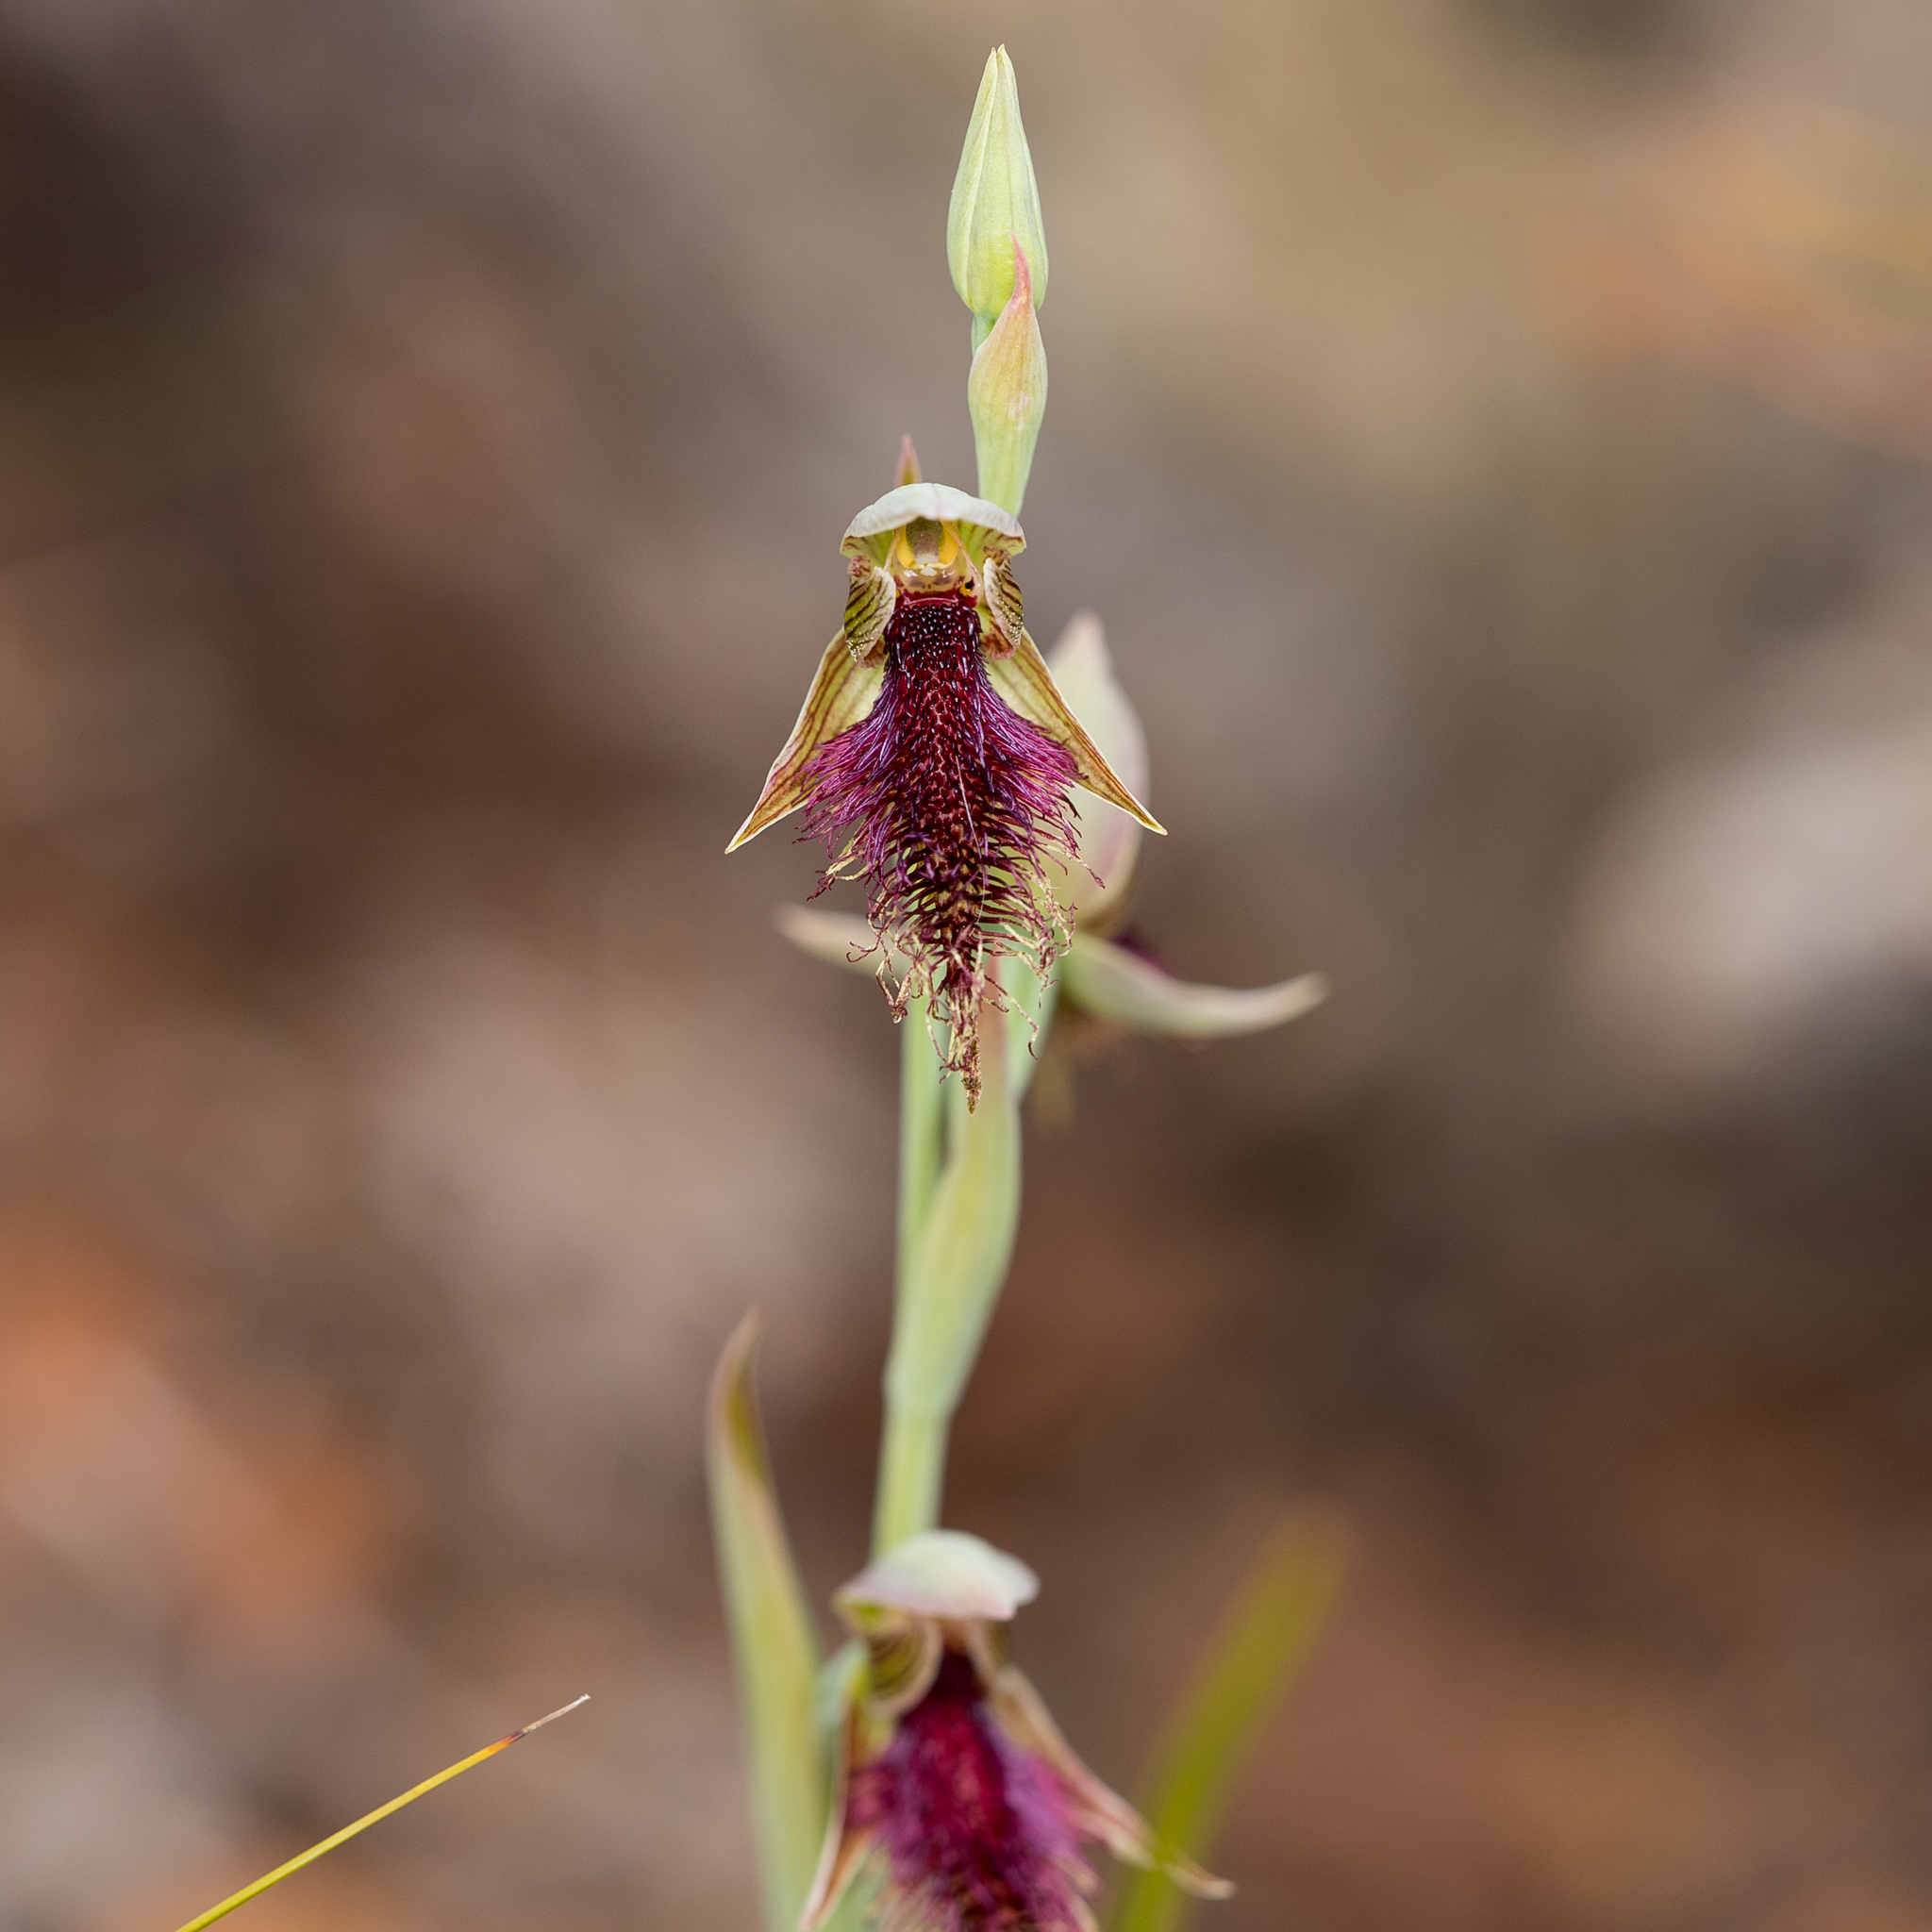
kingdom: Plantae
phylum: Tracheophyta
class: Liliopsida
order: Asparagales
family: Orchidaceae
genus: Calochilus
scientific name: Calochilus robertsonii
